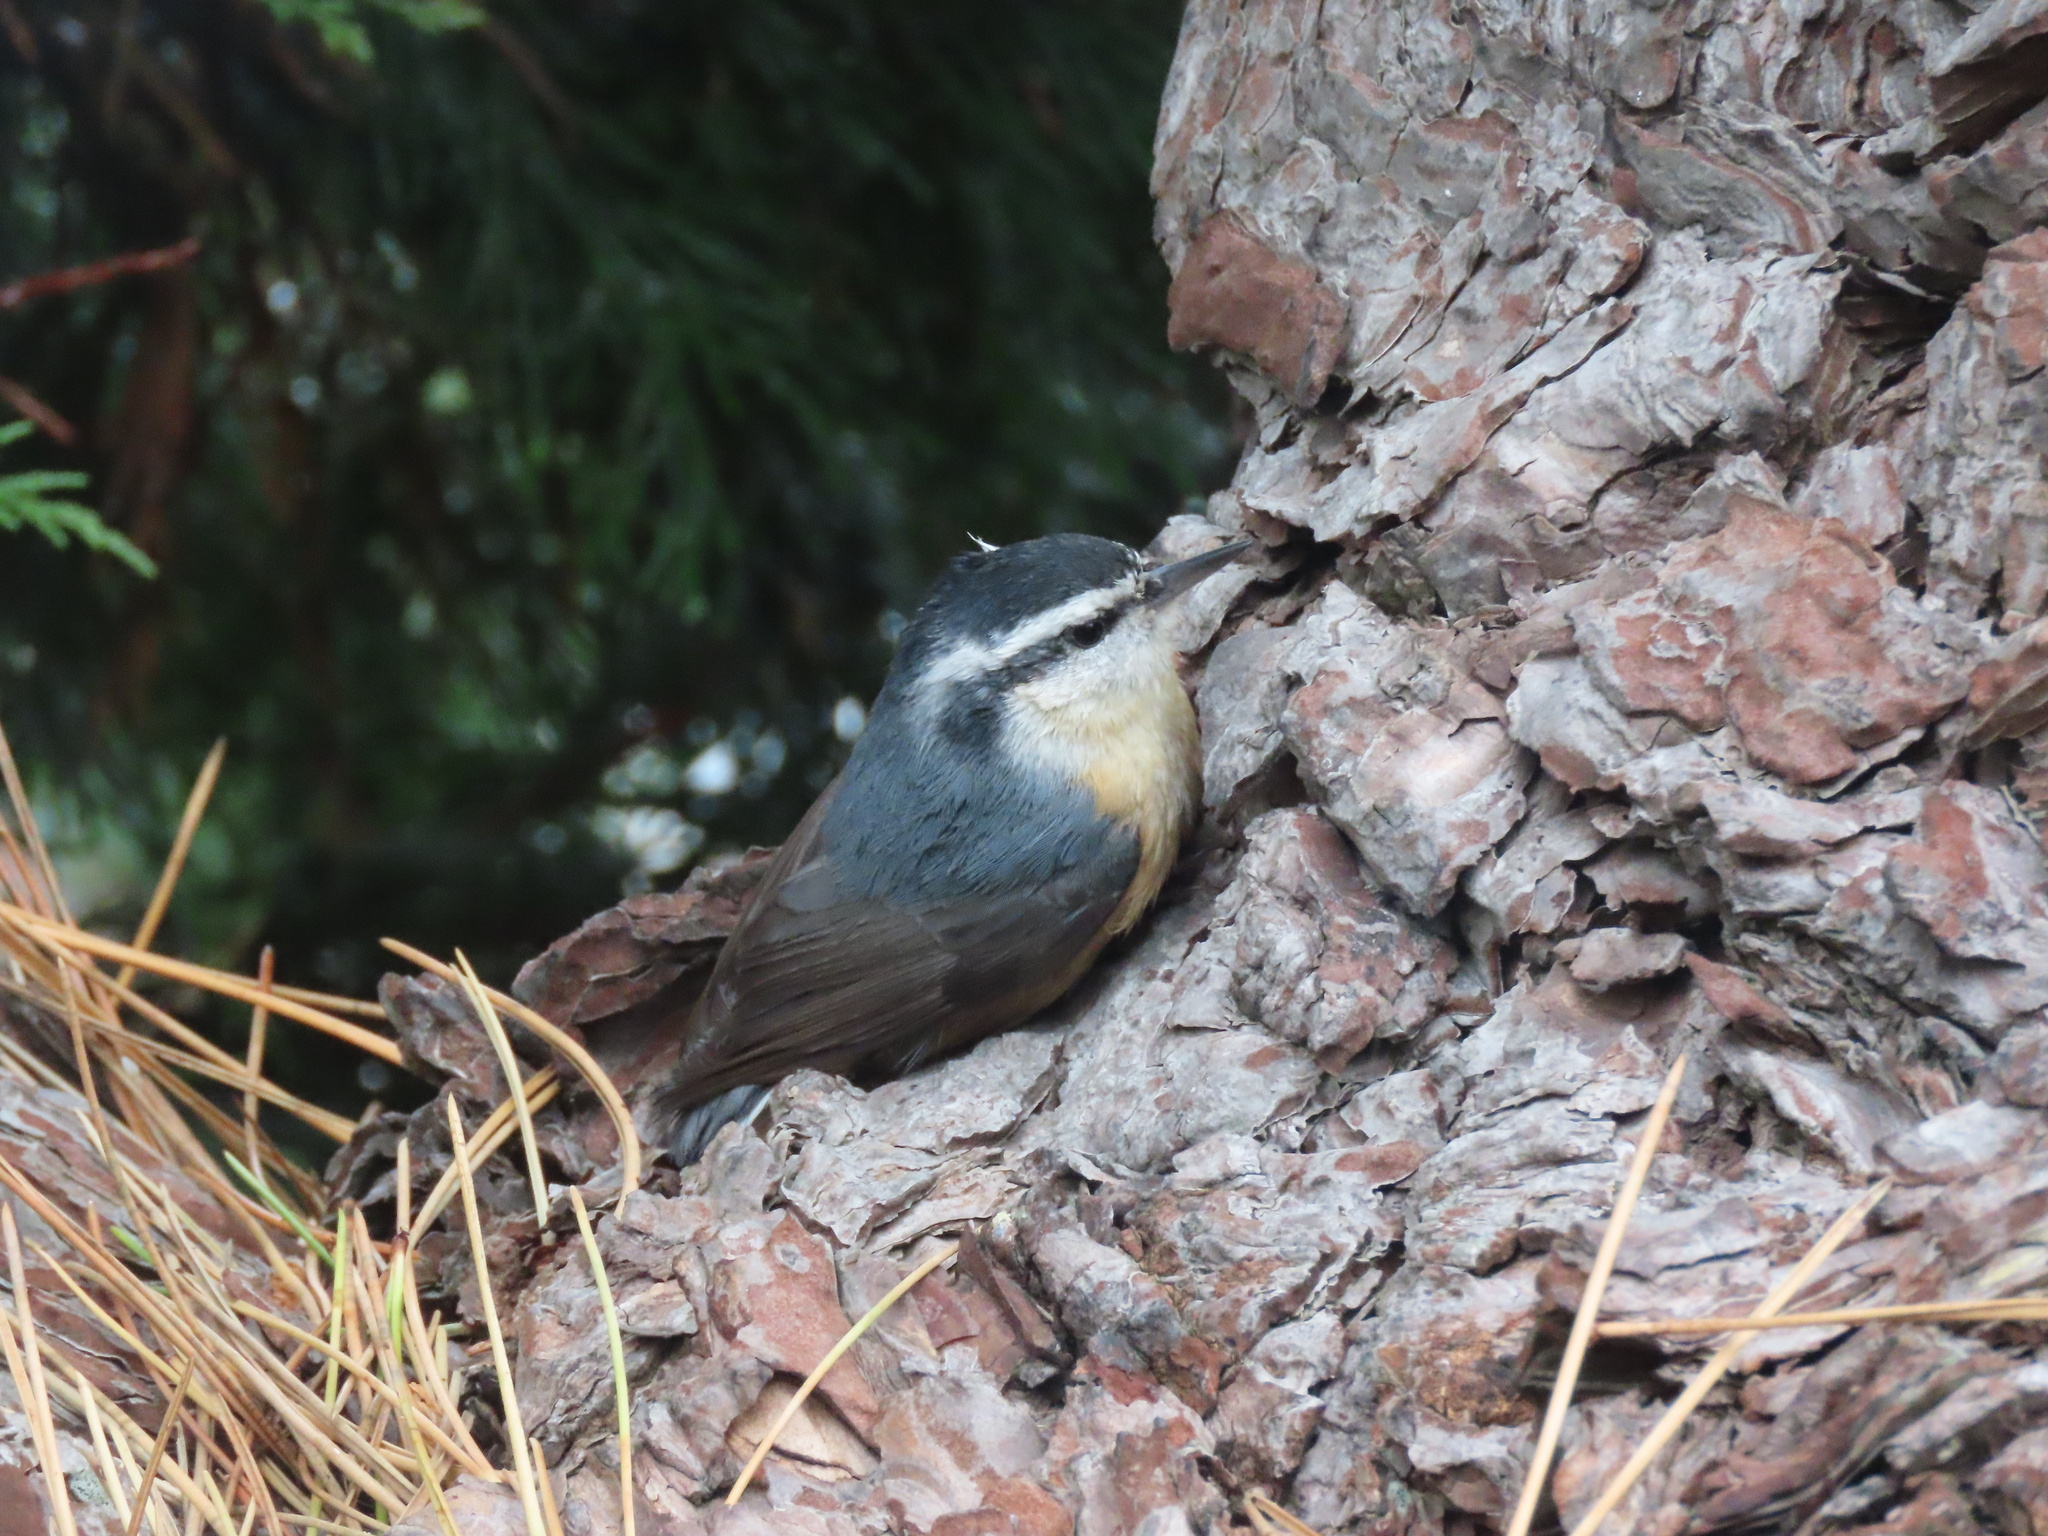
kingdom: Animalia
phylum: Chordata
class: Aves
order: Passeriformes
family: Sittidae
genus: Sitta
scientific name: Sitta canadensis
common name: Red-breasted nuthatch
